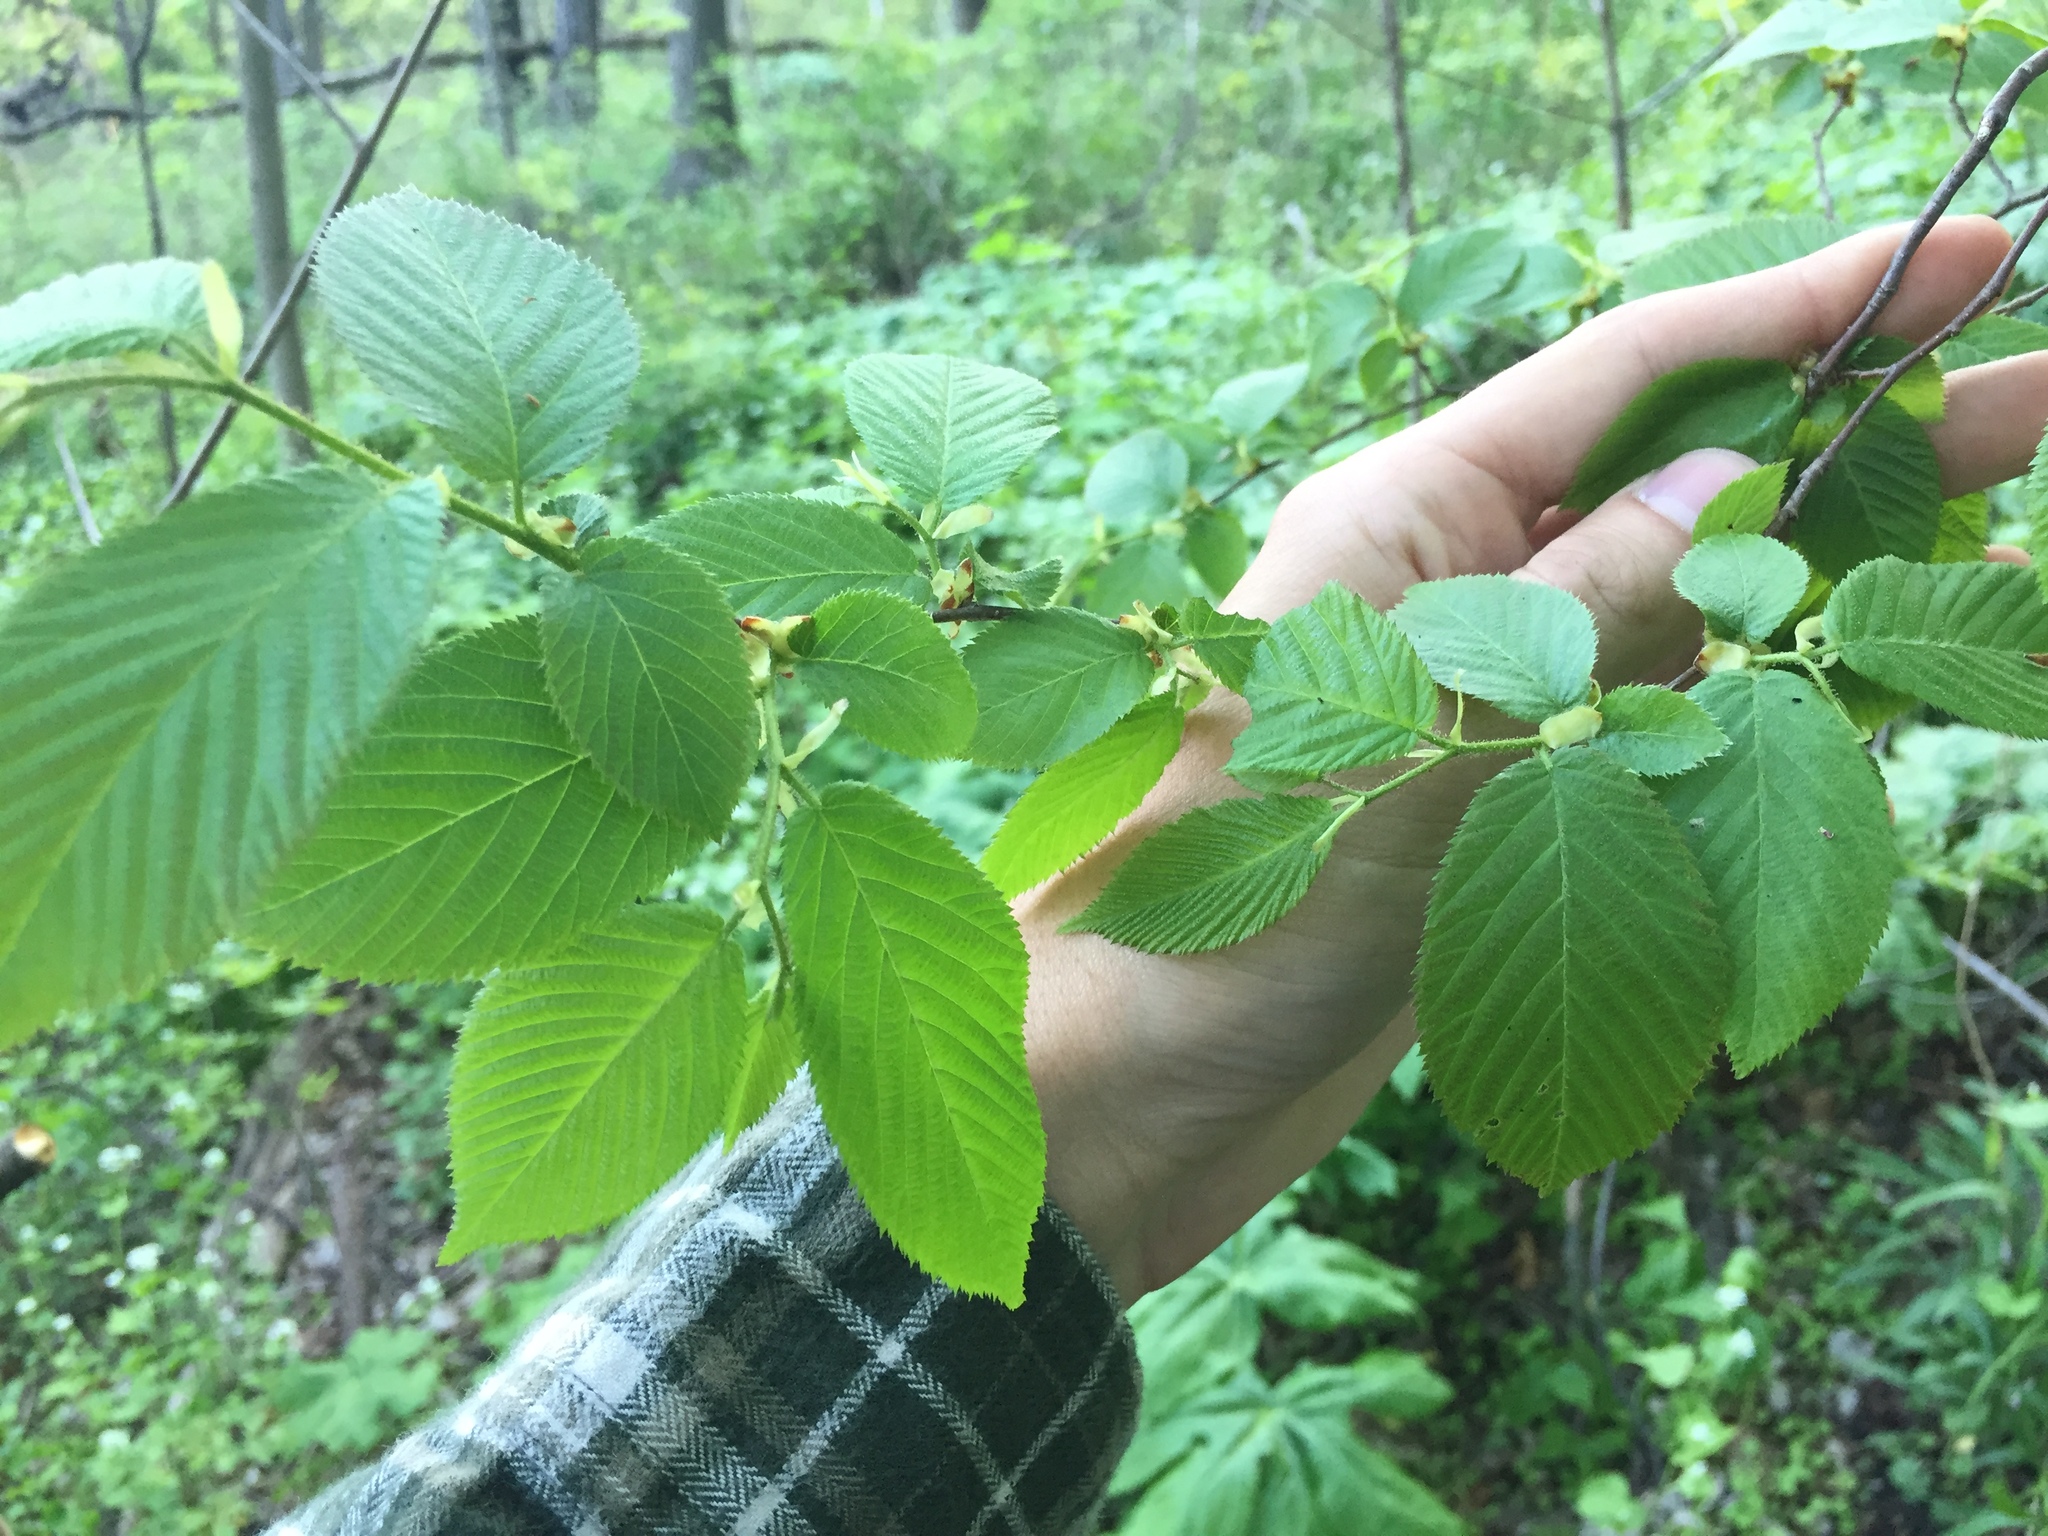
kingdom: Plantae
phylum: Tracheophyta
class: Magnoliopsida
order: Fagales
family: Betulaceae
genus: Ostrya
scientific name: Ostrya virginiana
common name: Ironwood
